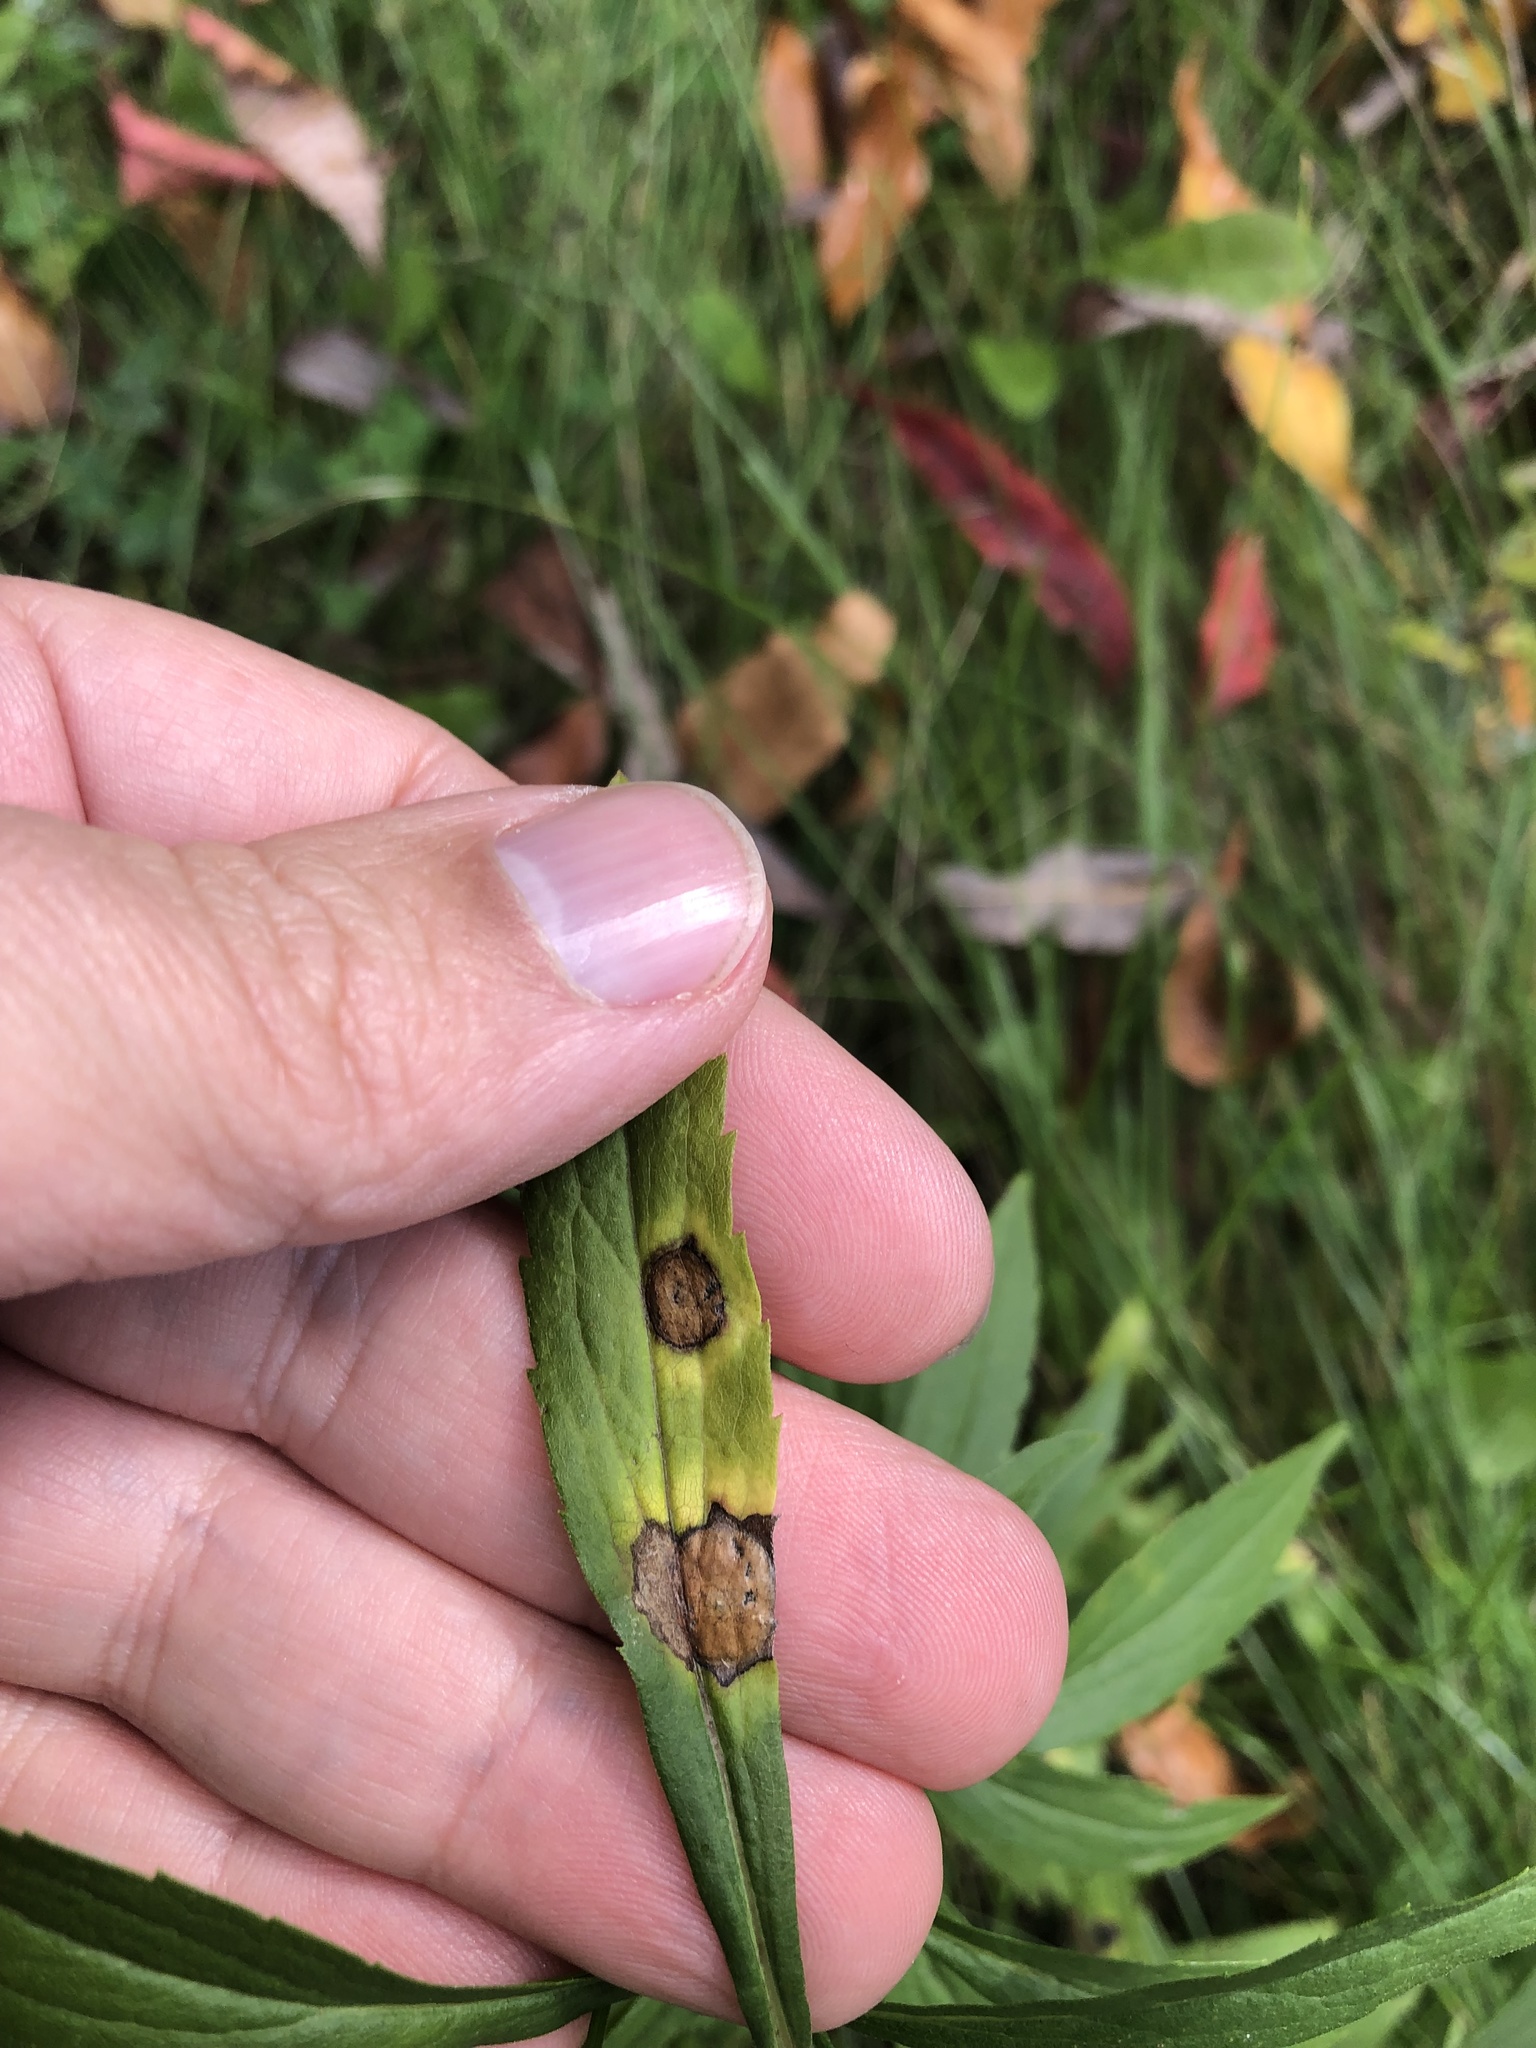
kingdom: Animalia
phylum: Arthropoda
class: Insecta
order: Diptera
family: Cecidomyiidae
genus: Asteromyia
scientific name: Asteromyia carbonifera
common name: Carbonifera goldenrod gall midge
